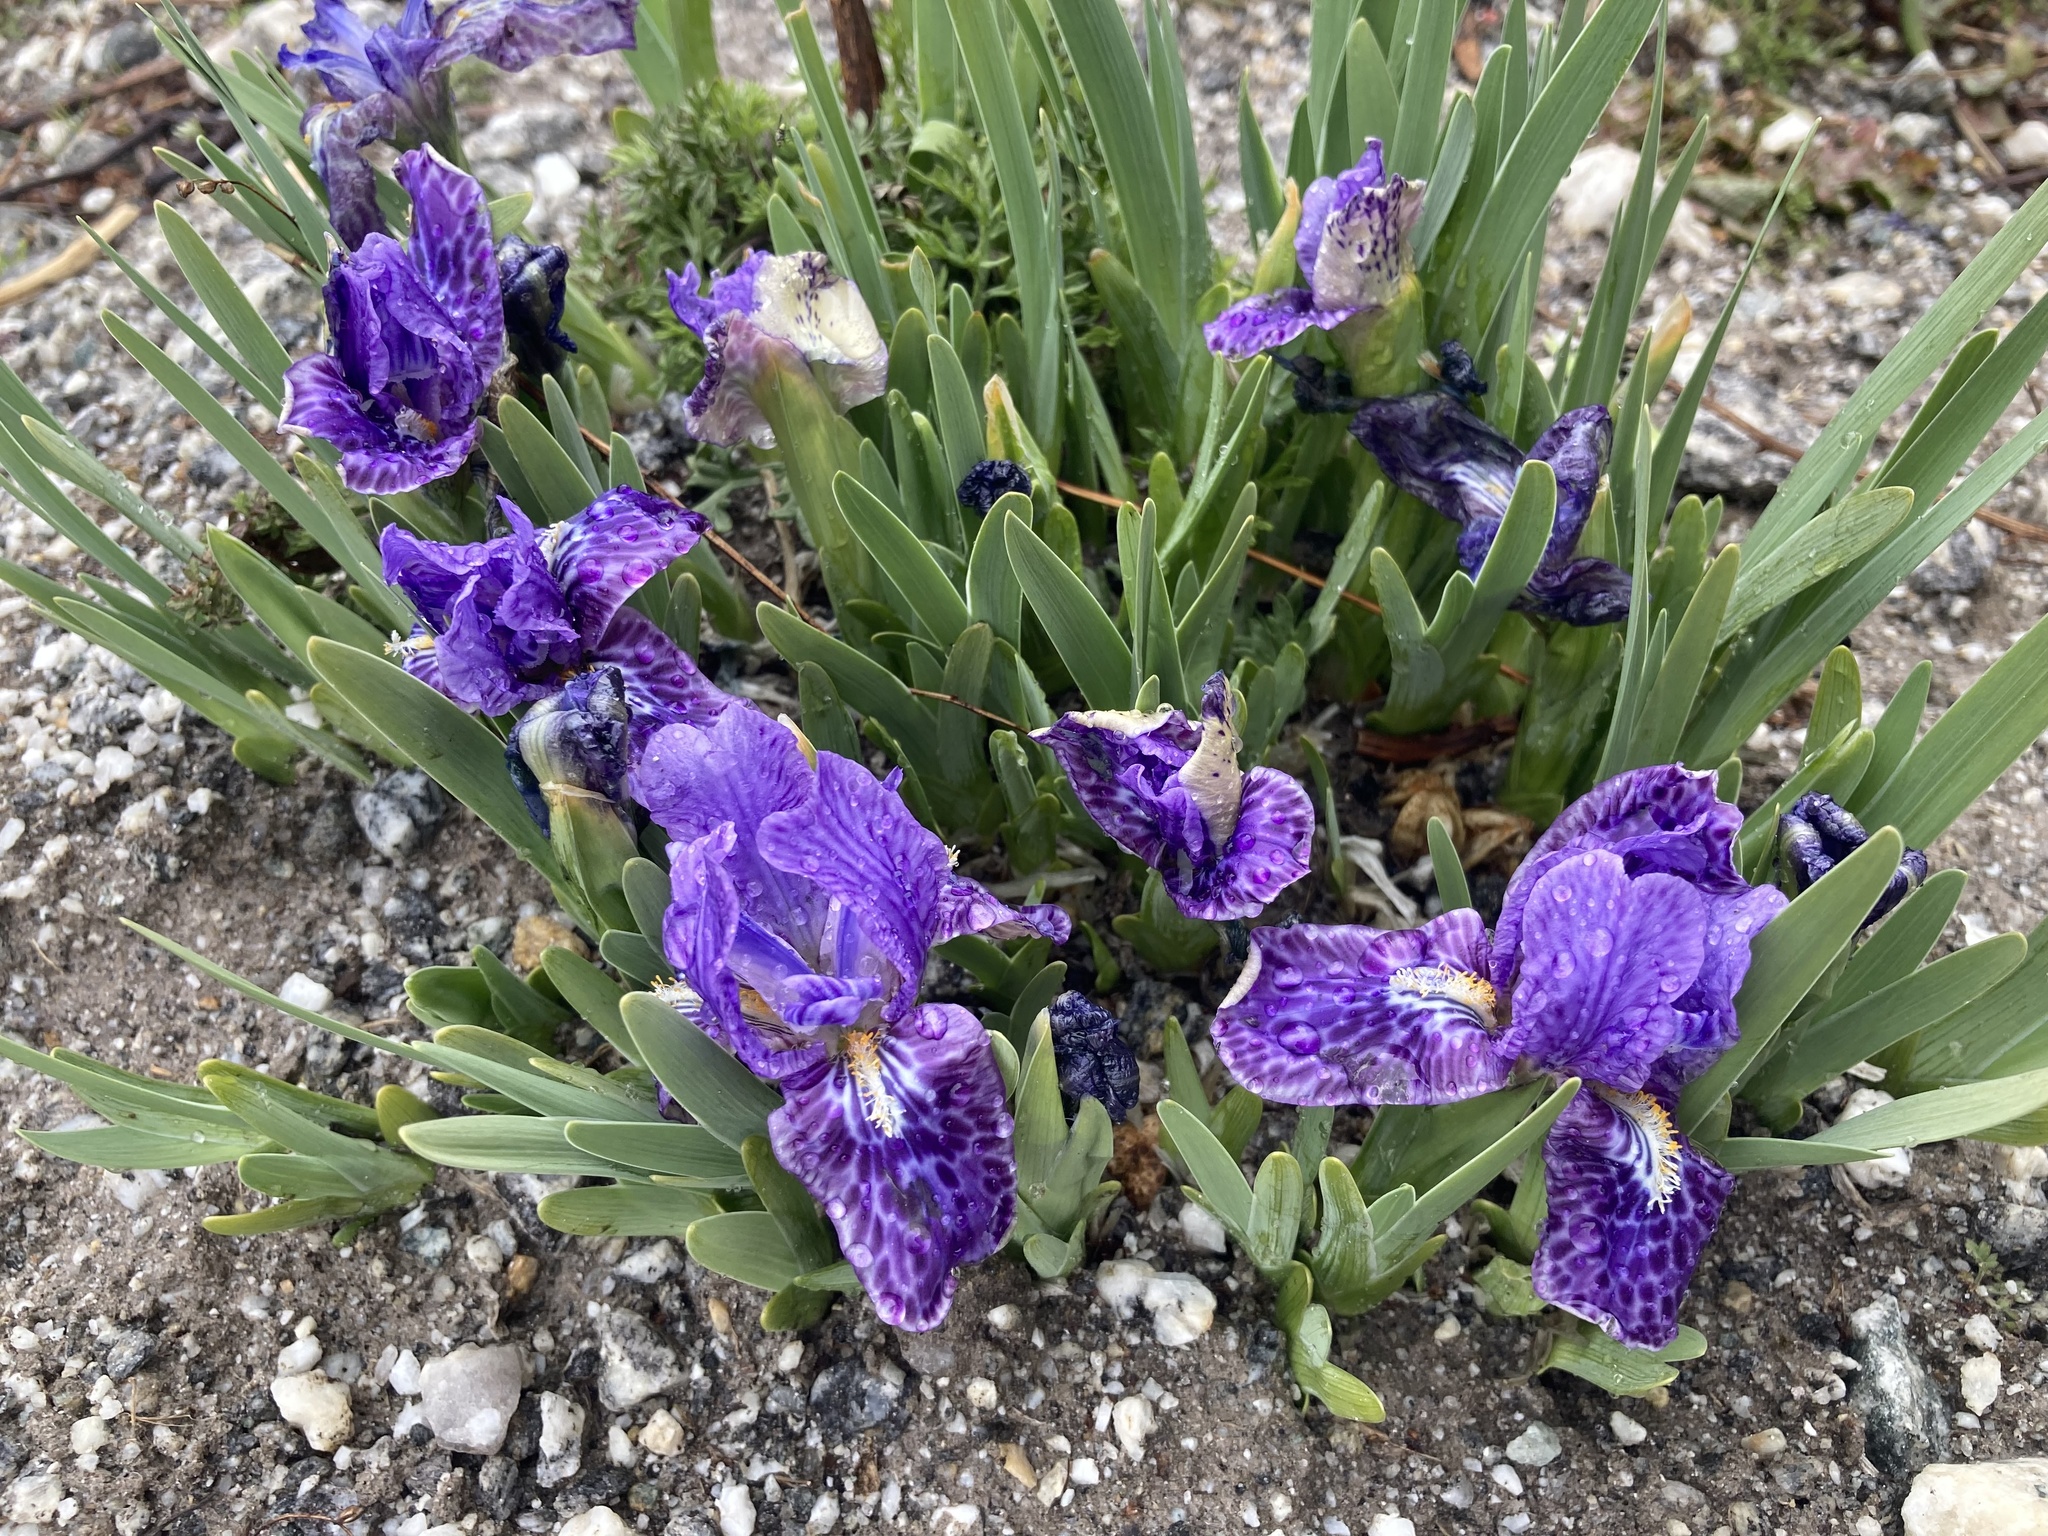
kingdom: Plantae
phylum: Tracheophyta
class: Liliopsida
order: Asparagales
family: Iridaceae
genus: Iris
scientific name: Iris kemaonensis
